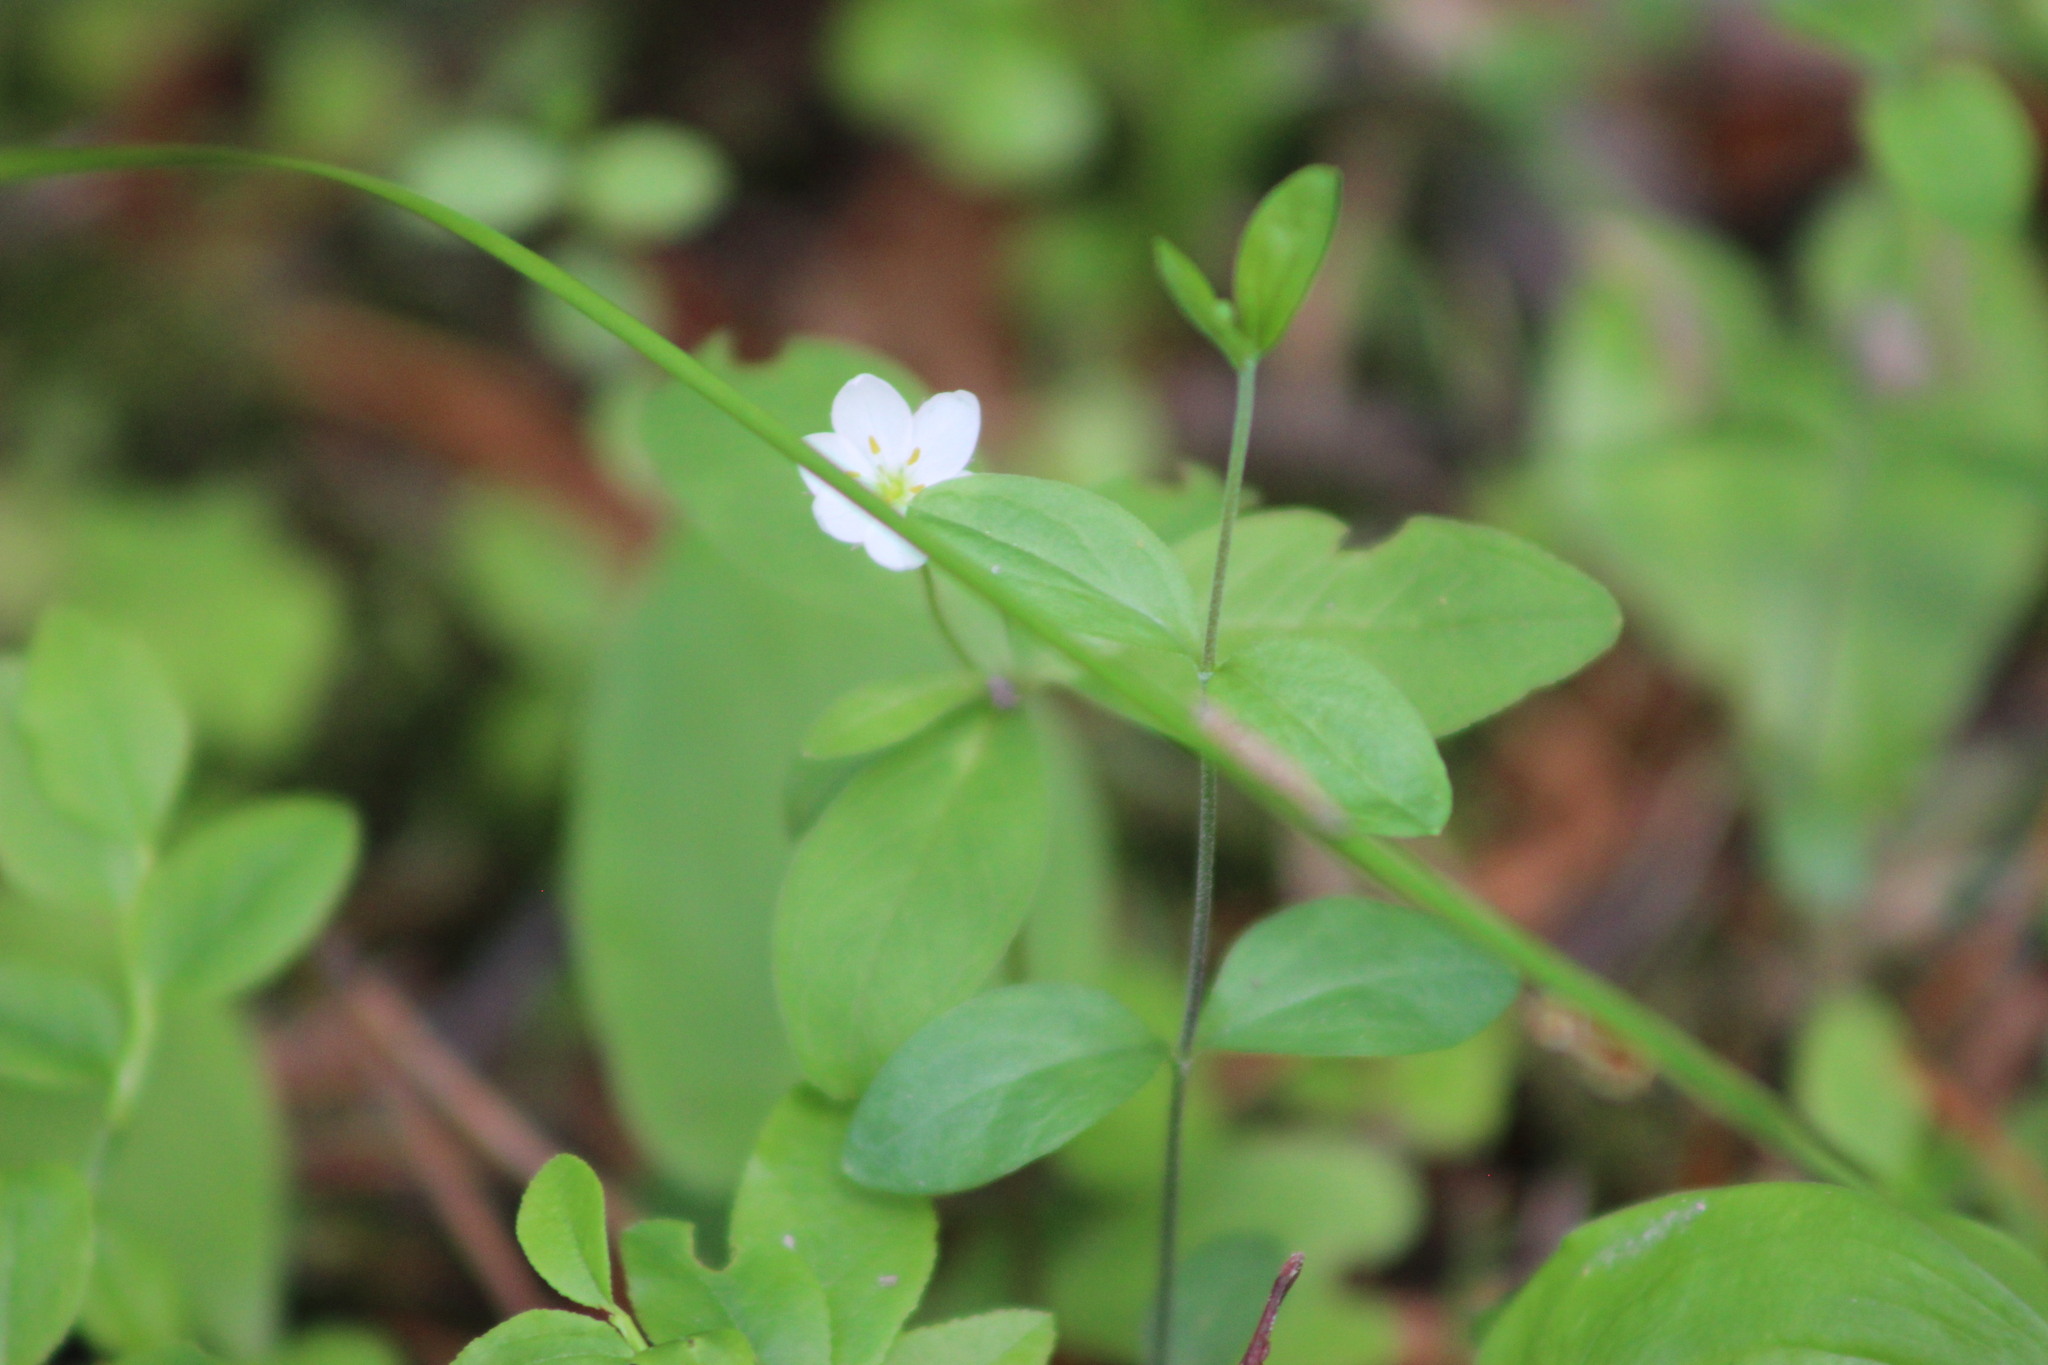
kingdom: Plantae
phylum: Tracheophyta
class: Magnoliopsida
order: Caryophyllales
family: Caryophyllaceae
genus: Moehringia
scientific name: Moehringia lateriflora
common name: Blunt-leaved sandwort
